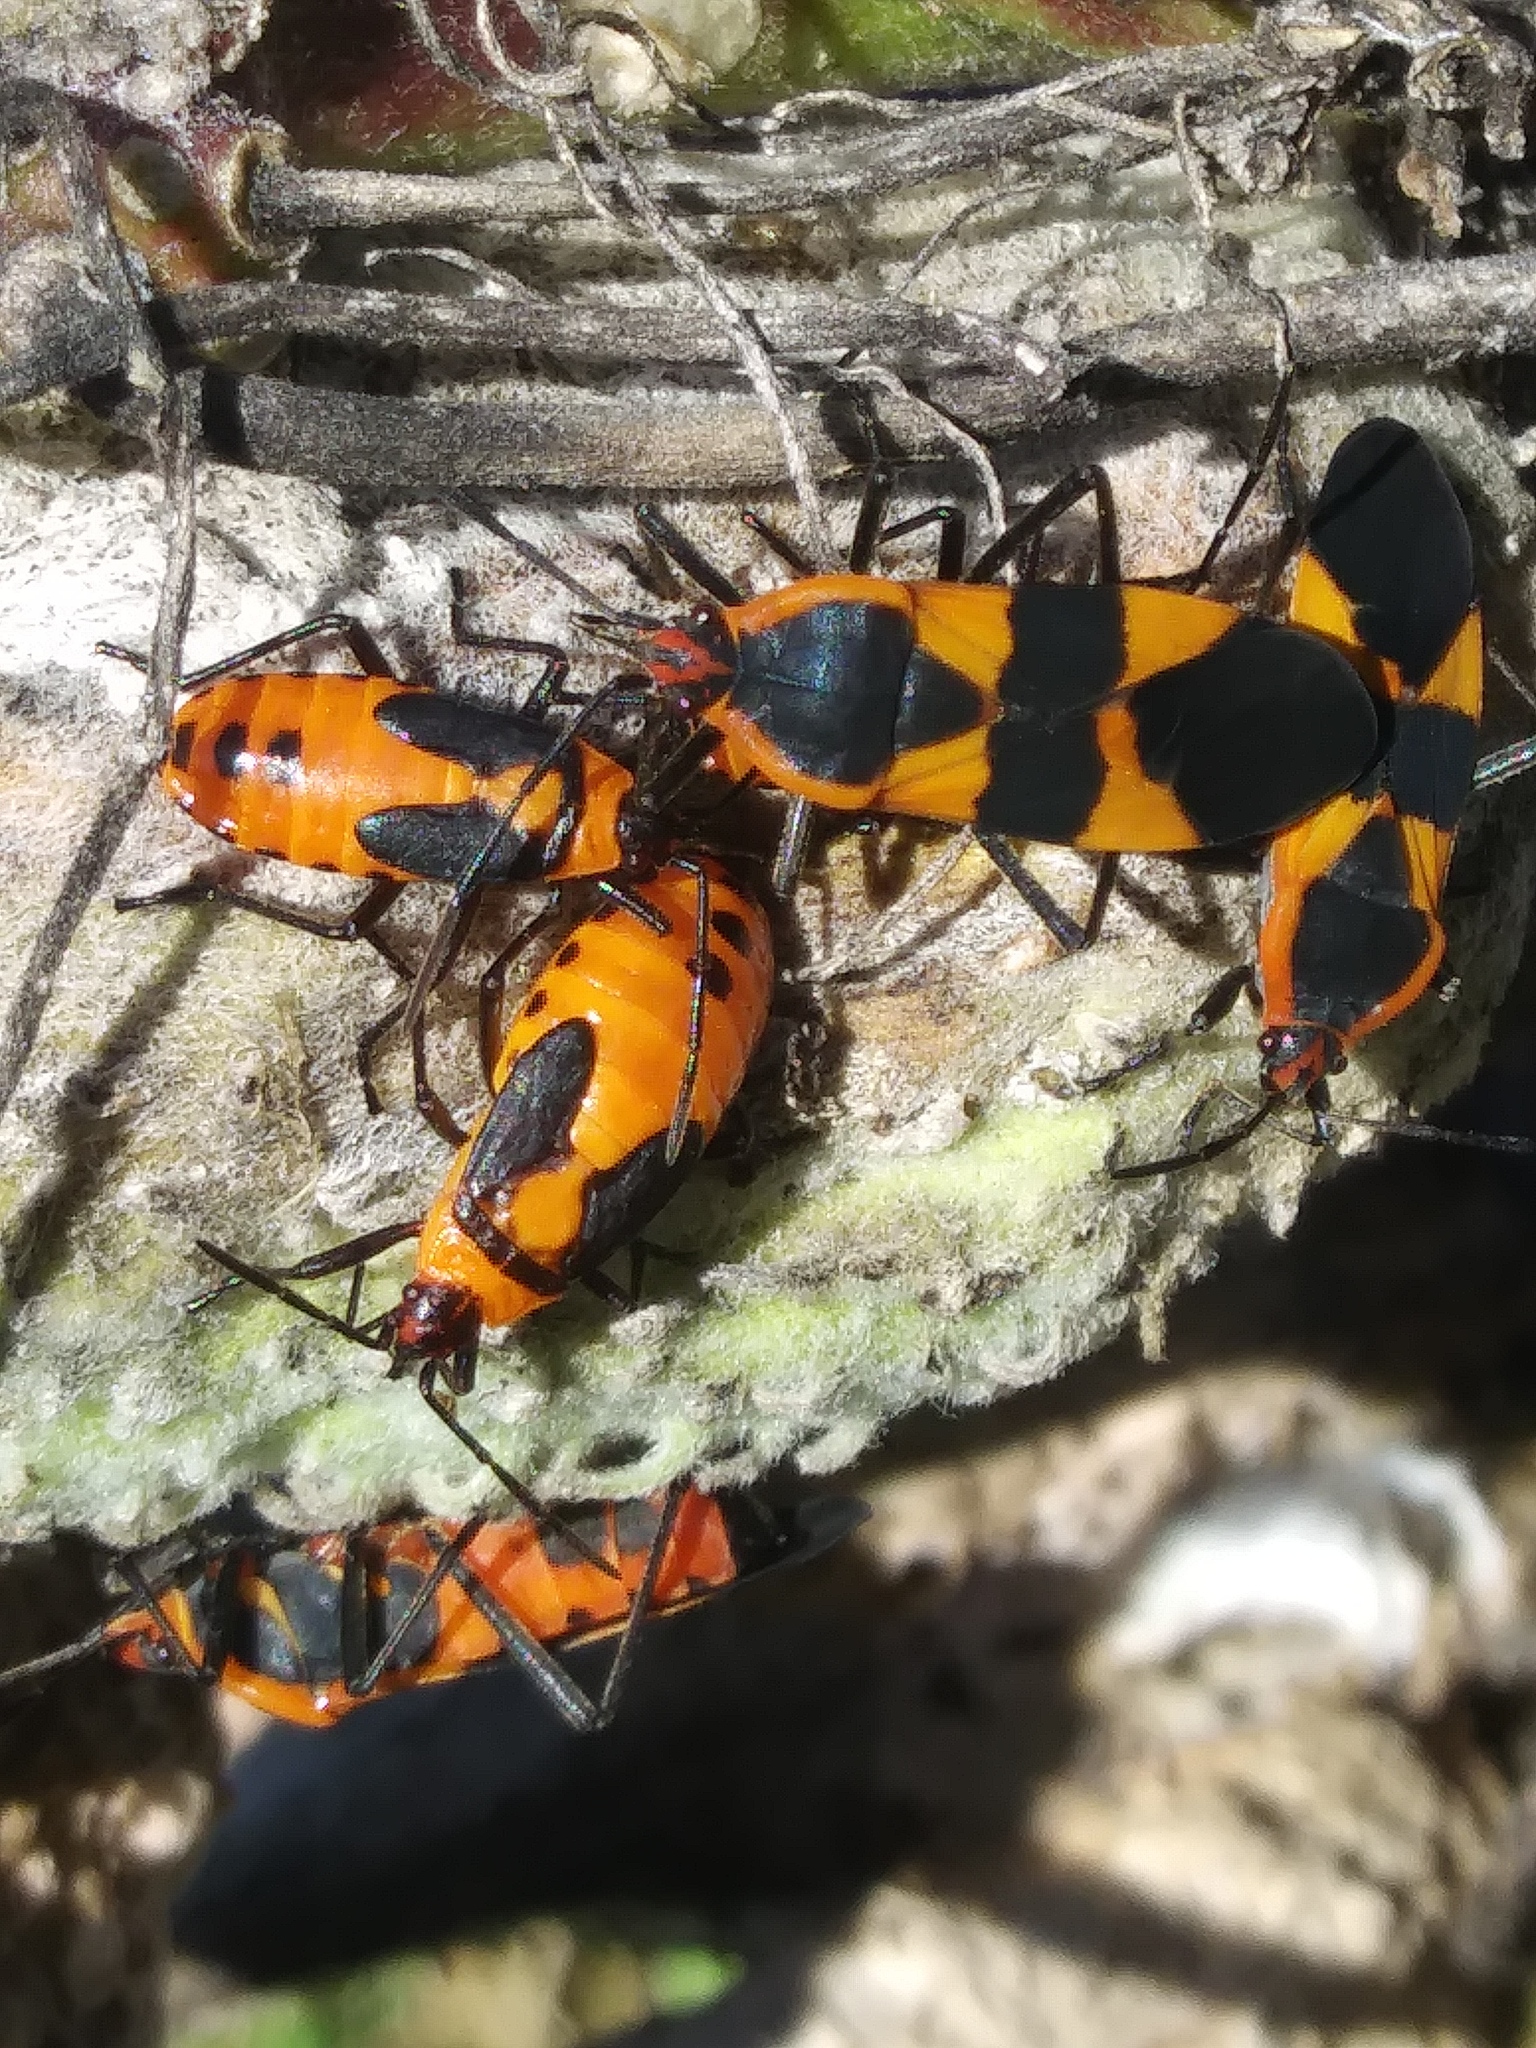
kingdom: Animalia
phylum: Arthropoda
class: Insecta
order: Hemiptera
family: Lygaeidae
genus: Oncopeltus
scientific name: Oncopeltus fasciatus
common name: Large milkweed bug
